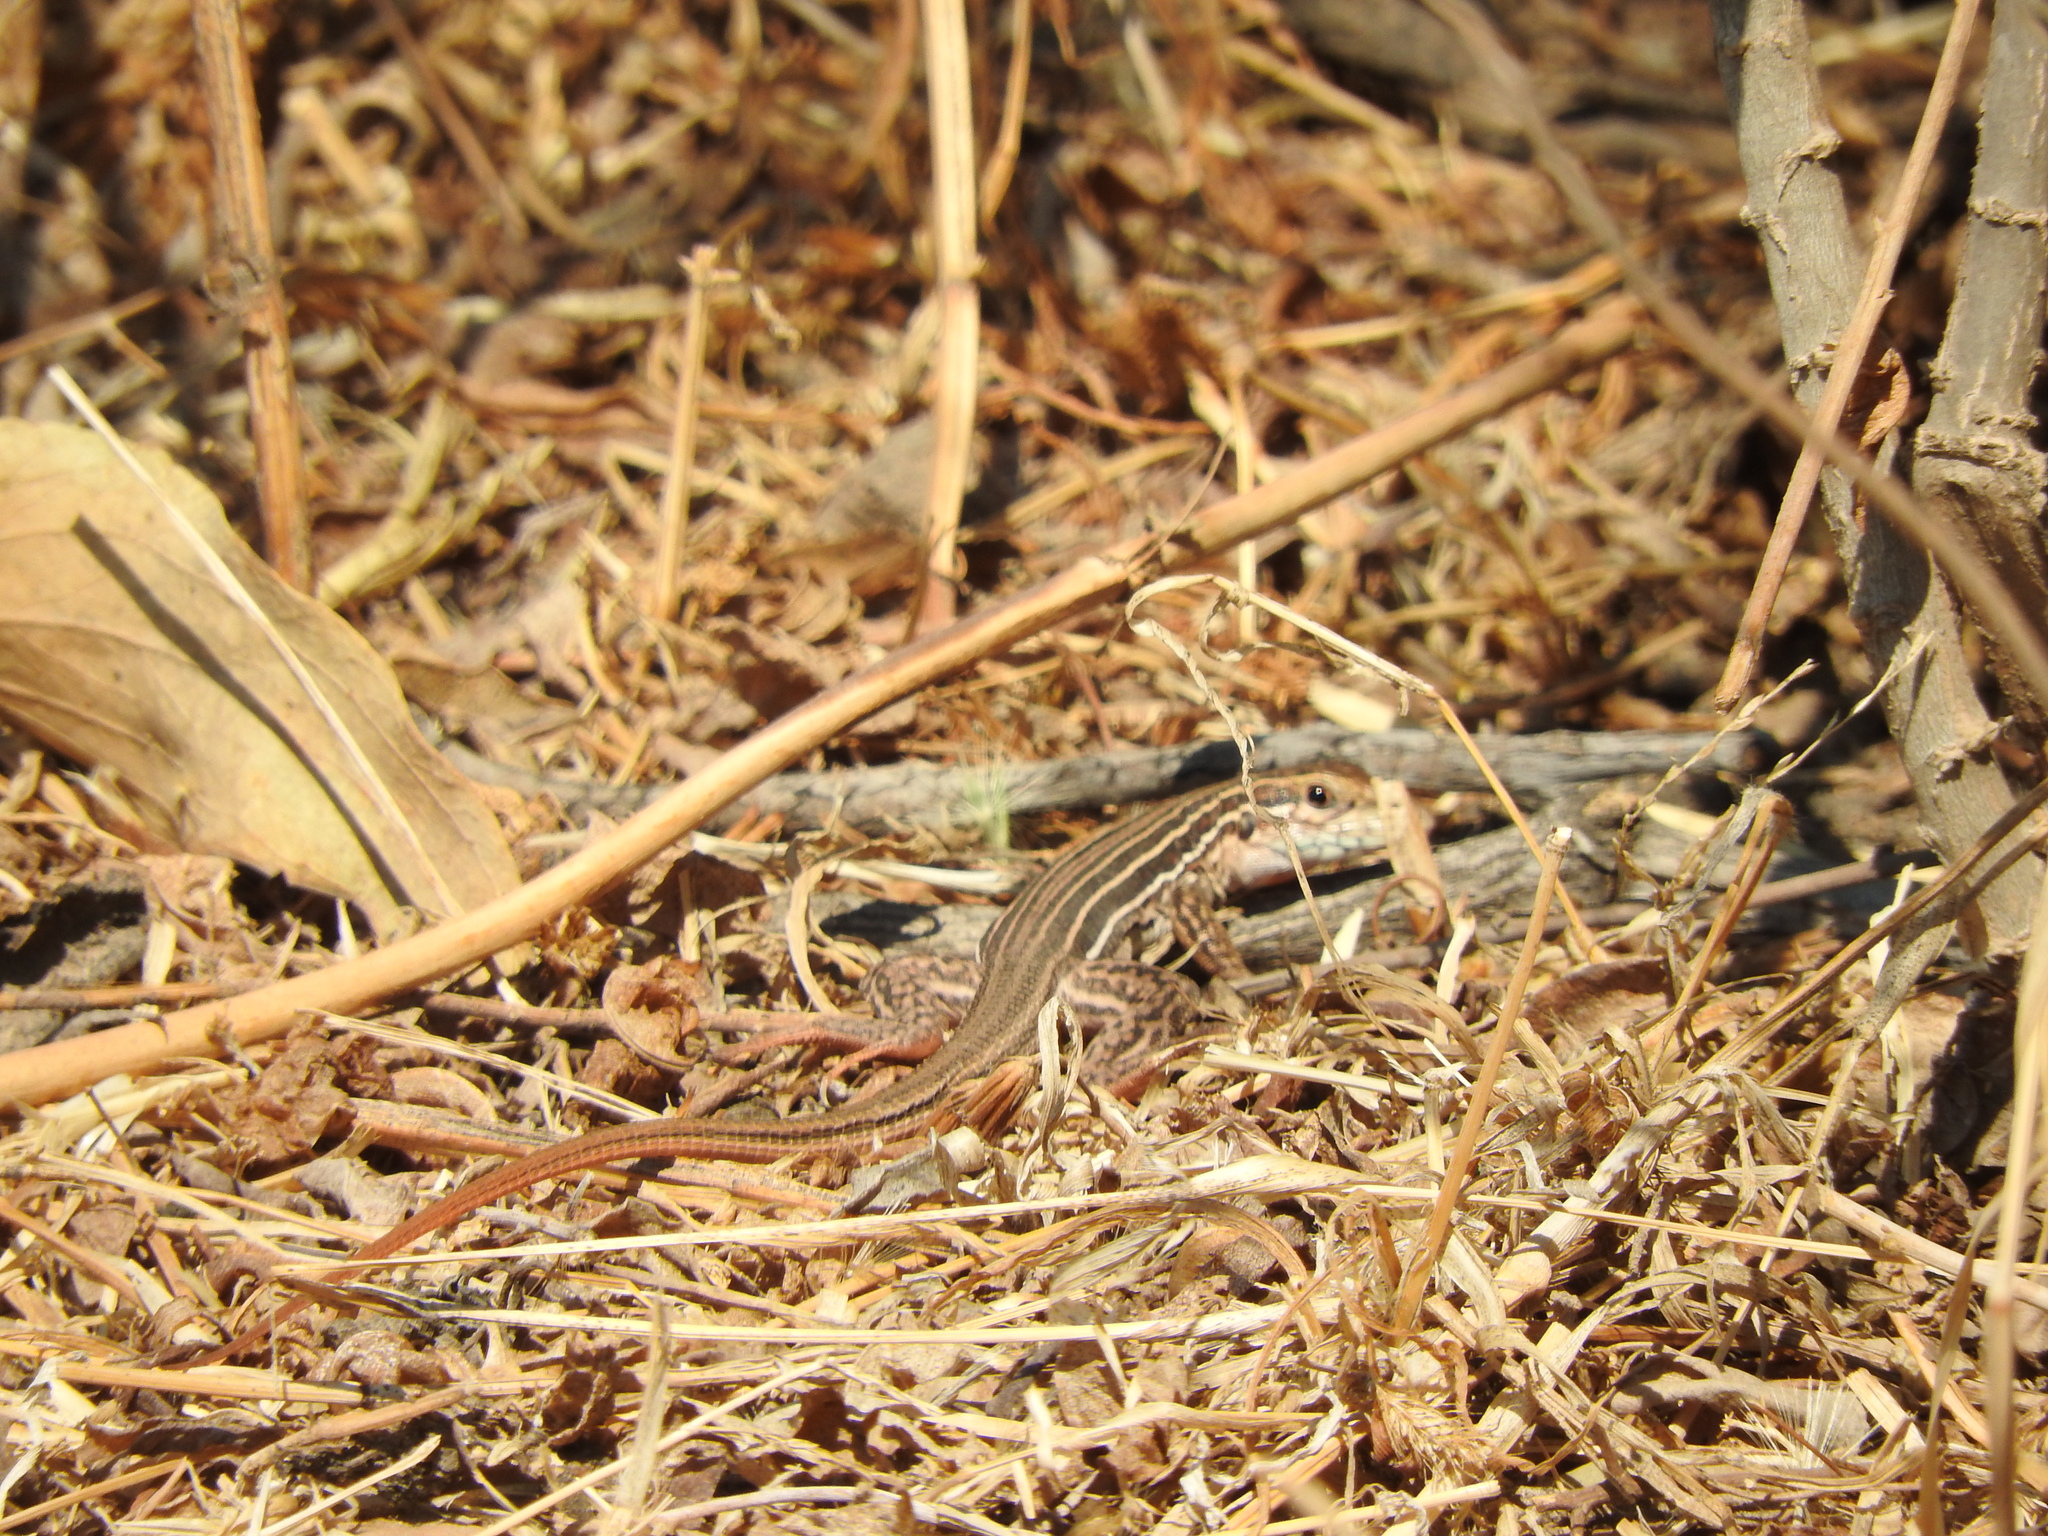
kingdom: Animalia
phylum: Chordata
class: Squamata
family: Teiidae
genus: Aspidoscelis
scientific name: Aspidoscelis gularis
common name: Eastern spotted whiptail
